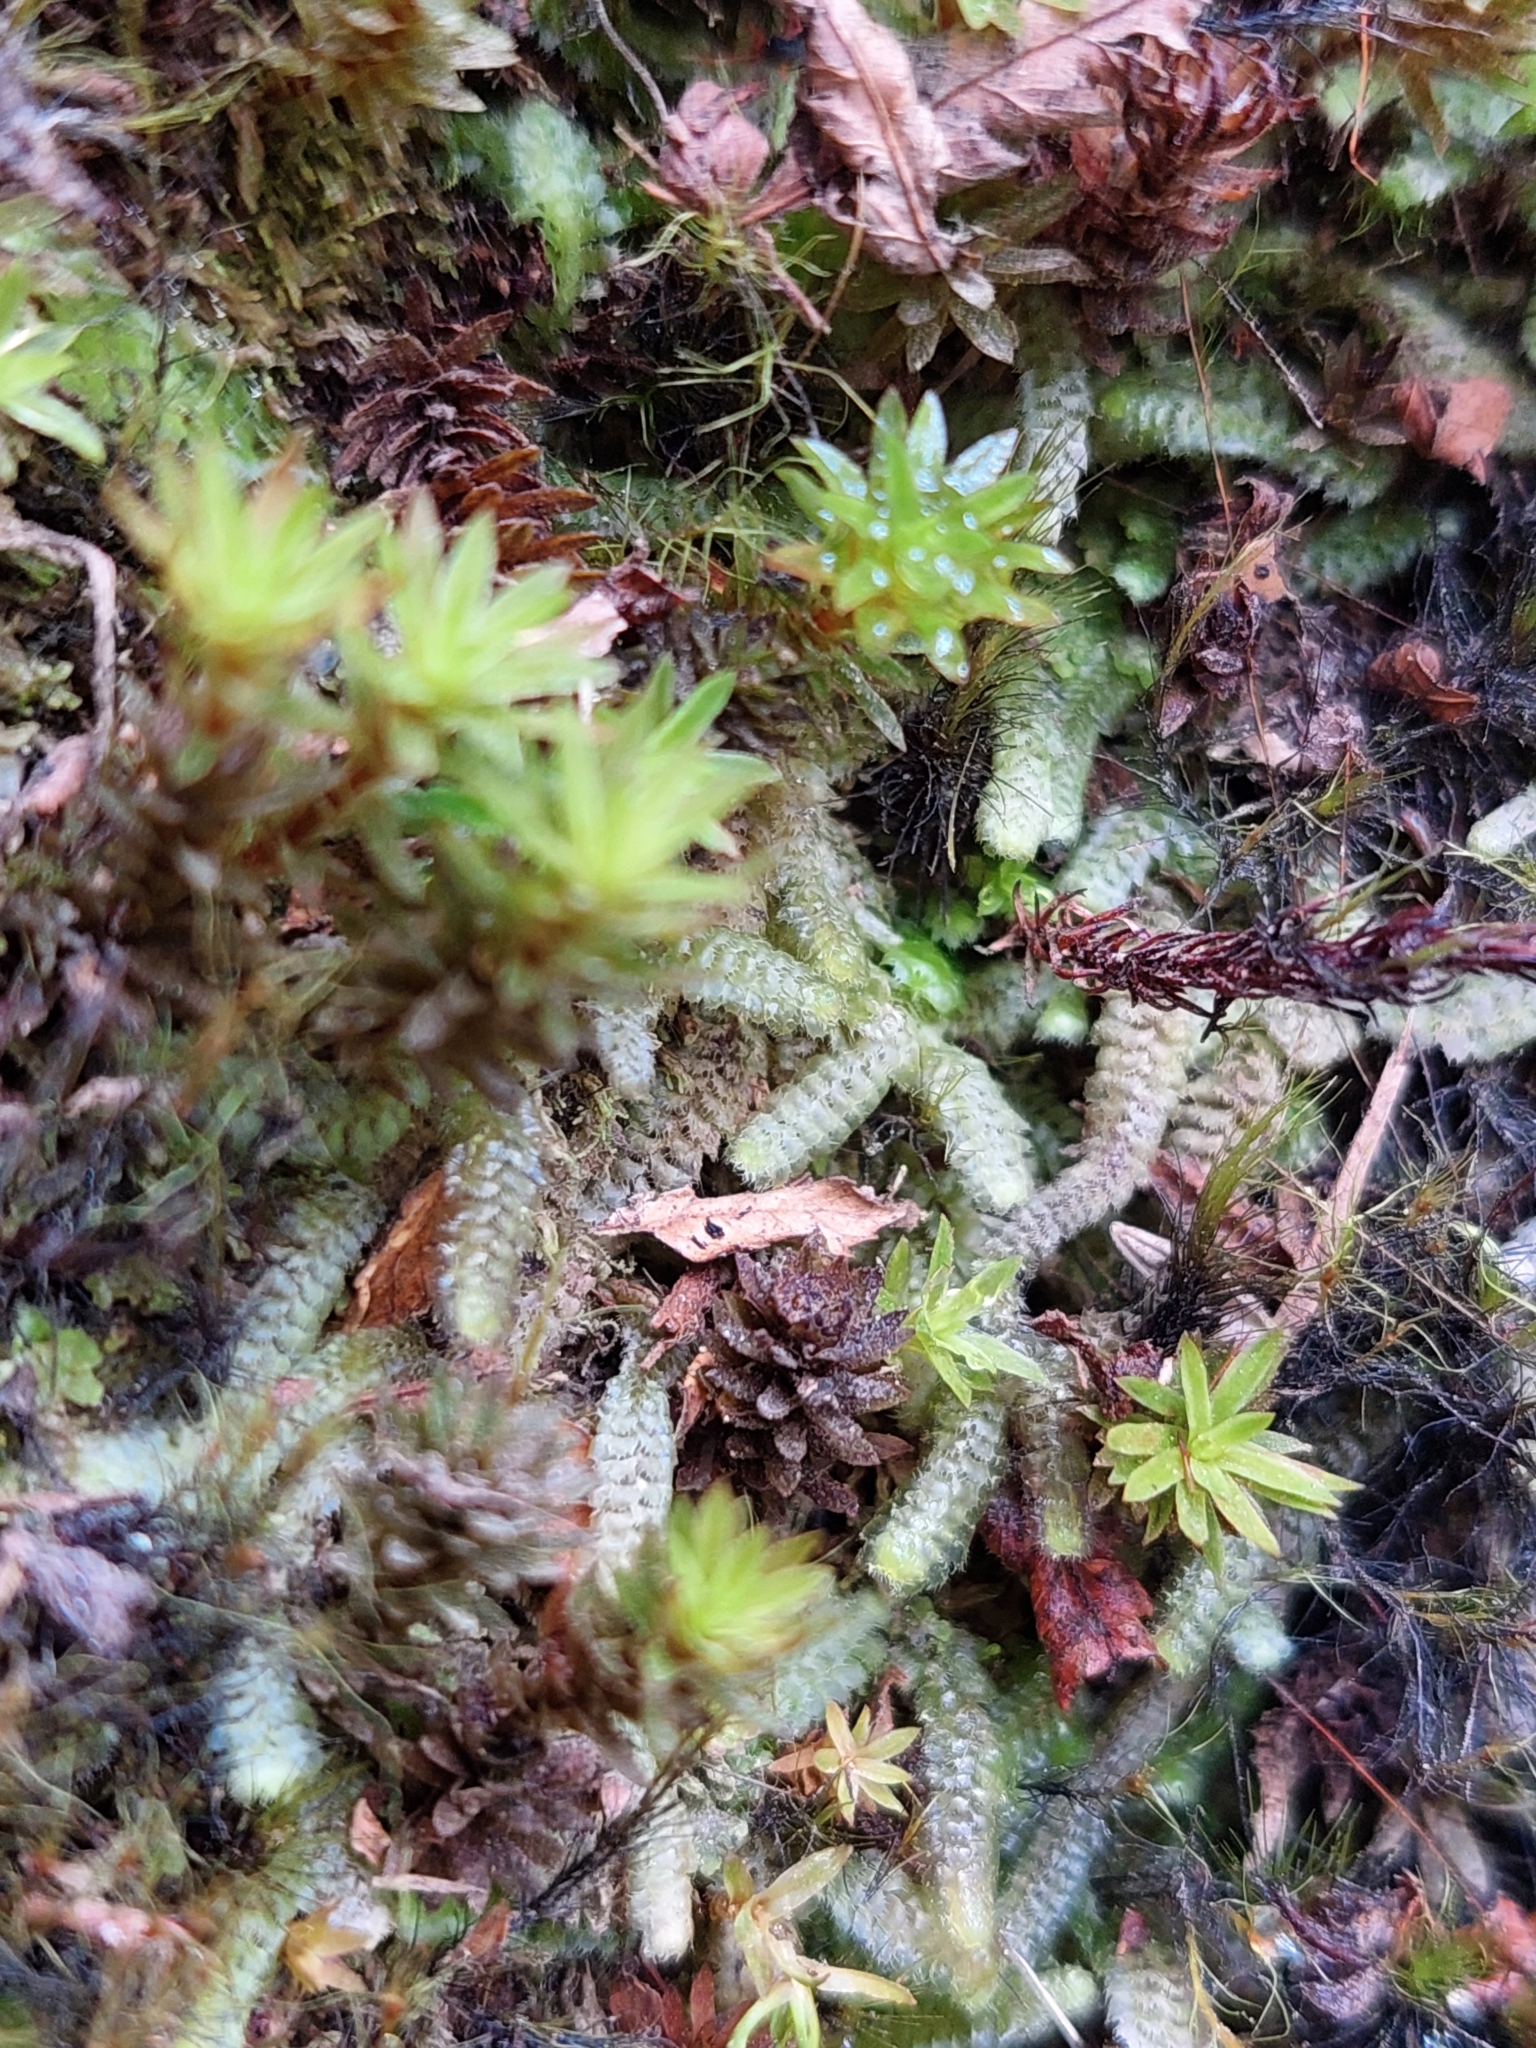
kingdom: Plantae
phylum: Marchantiophyta
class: Jungermanniopsida
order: Jungermanniales
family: Balantiopsidaceae
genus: Balantiopsis
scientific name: Balantiopsis diplophylla
